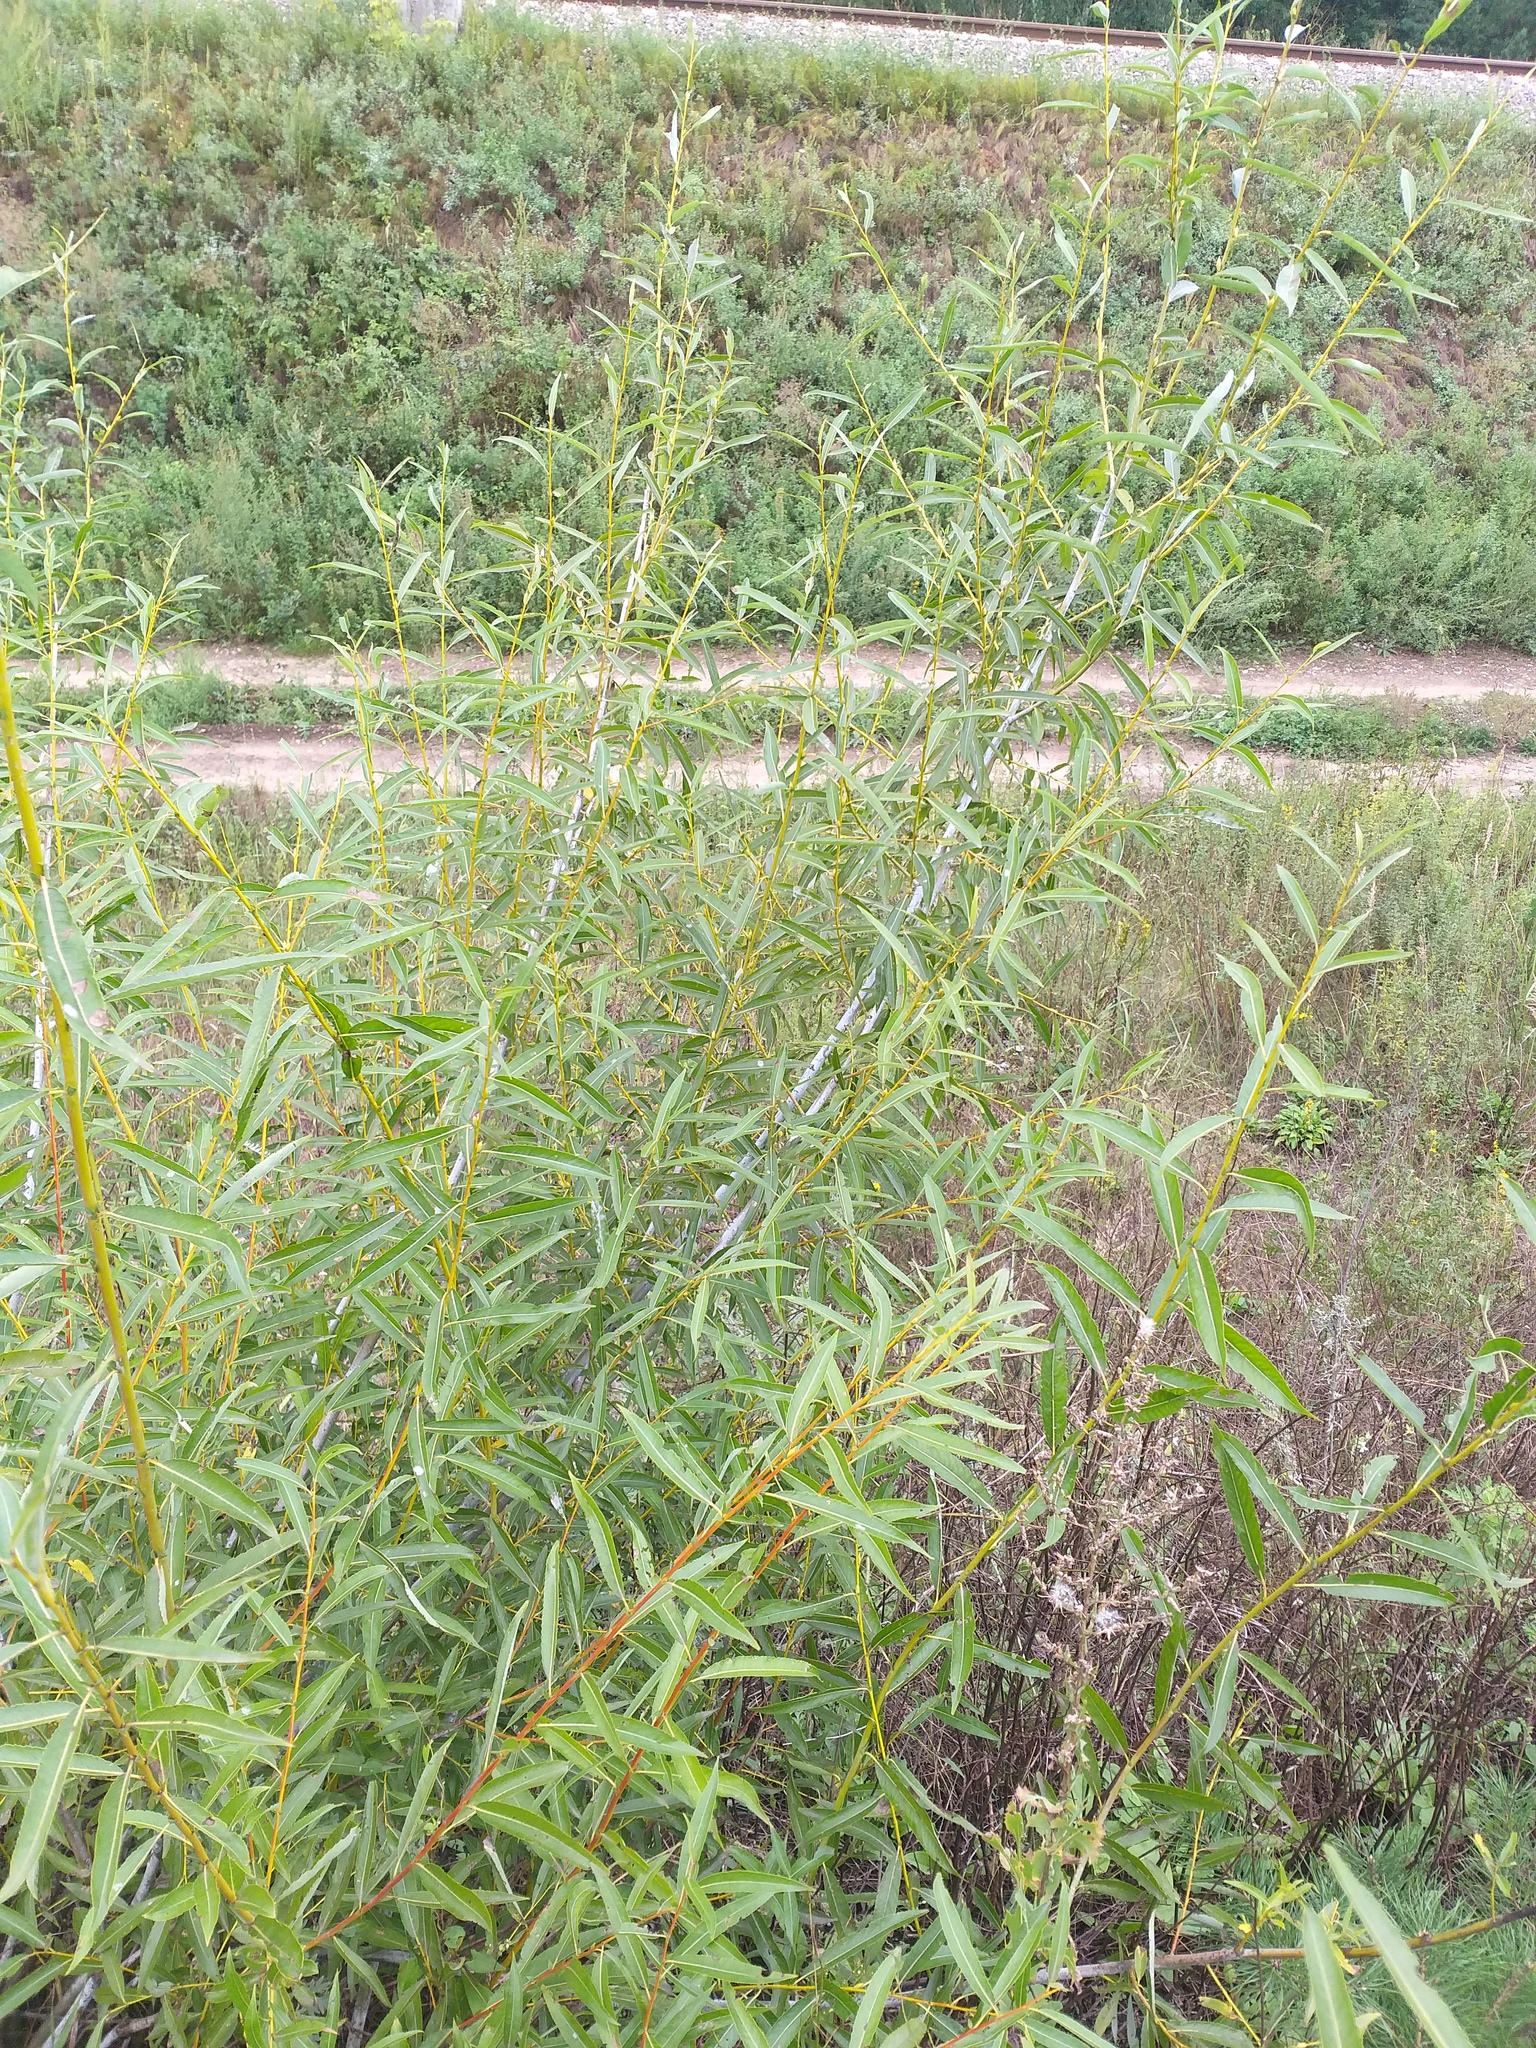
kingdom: Plantae
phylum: Tracheophyta
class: Magnoliopsida
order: Malpighiales
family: Salicaceae
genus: Salix
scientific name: Salix acutifolia
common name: Siberian violet-willow
